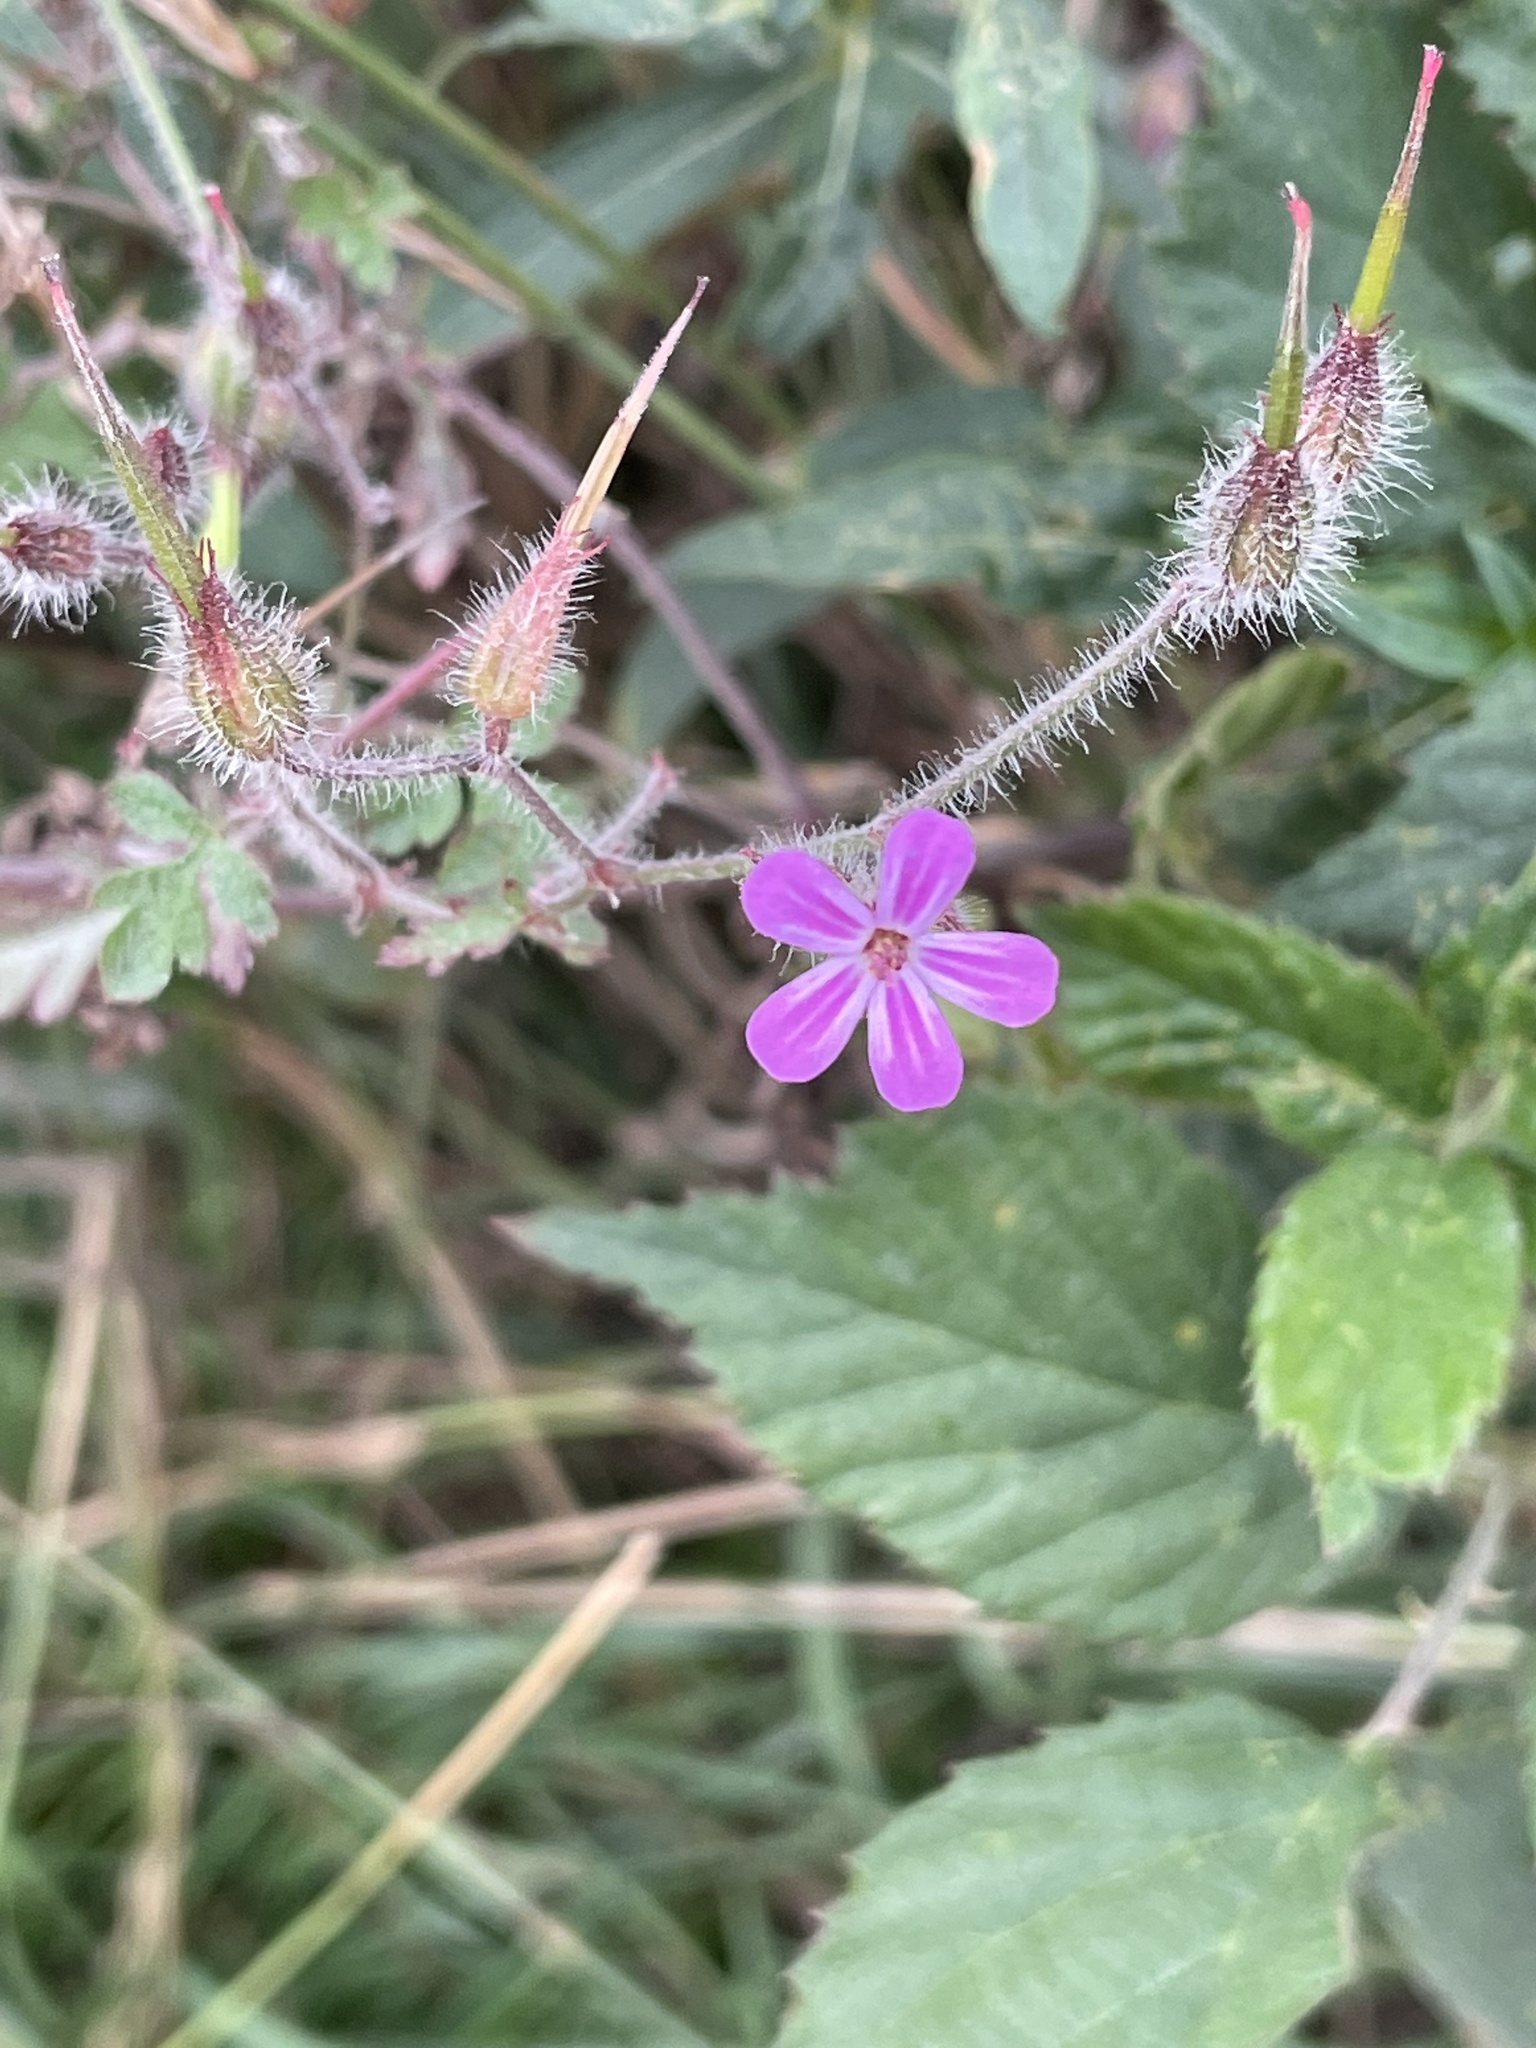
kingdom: Plantae
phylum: Tracheophyta
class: Magnoliopsida
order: Geraniales
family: Geraniaceae
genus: Geranium
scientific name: Geranium robertianum
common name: Herb-robert
